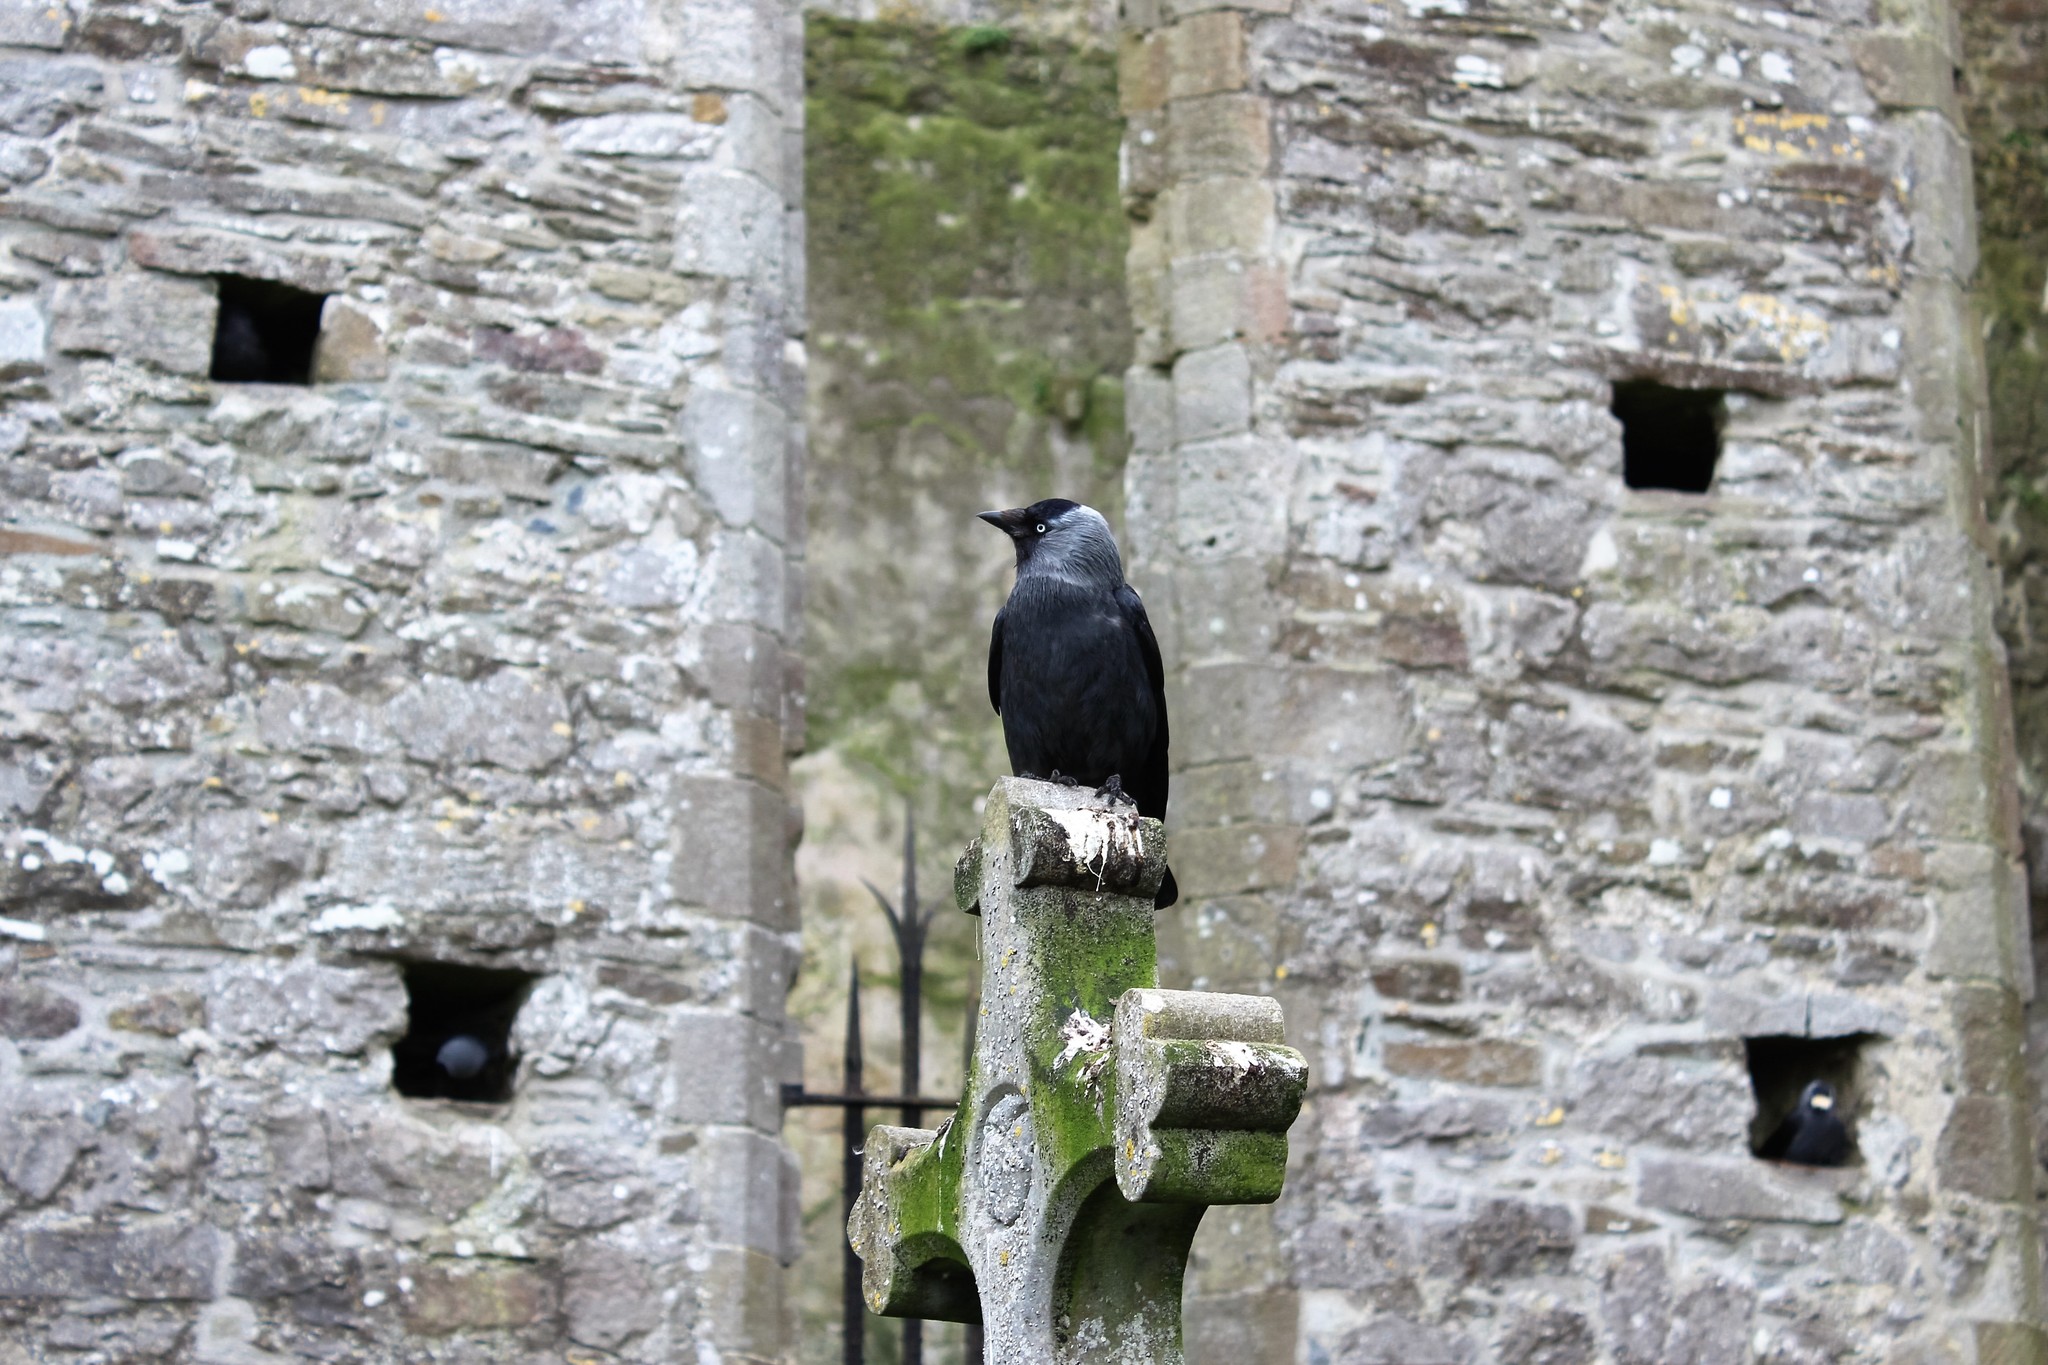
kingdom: Animalia
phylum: Chordata
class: Aves
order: Passeriformes
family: Corvidae
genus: Coloeus
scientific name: Coloeus monedula
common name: Western jackdaw
